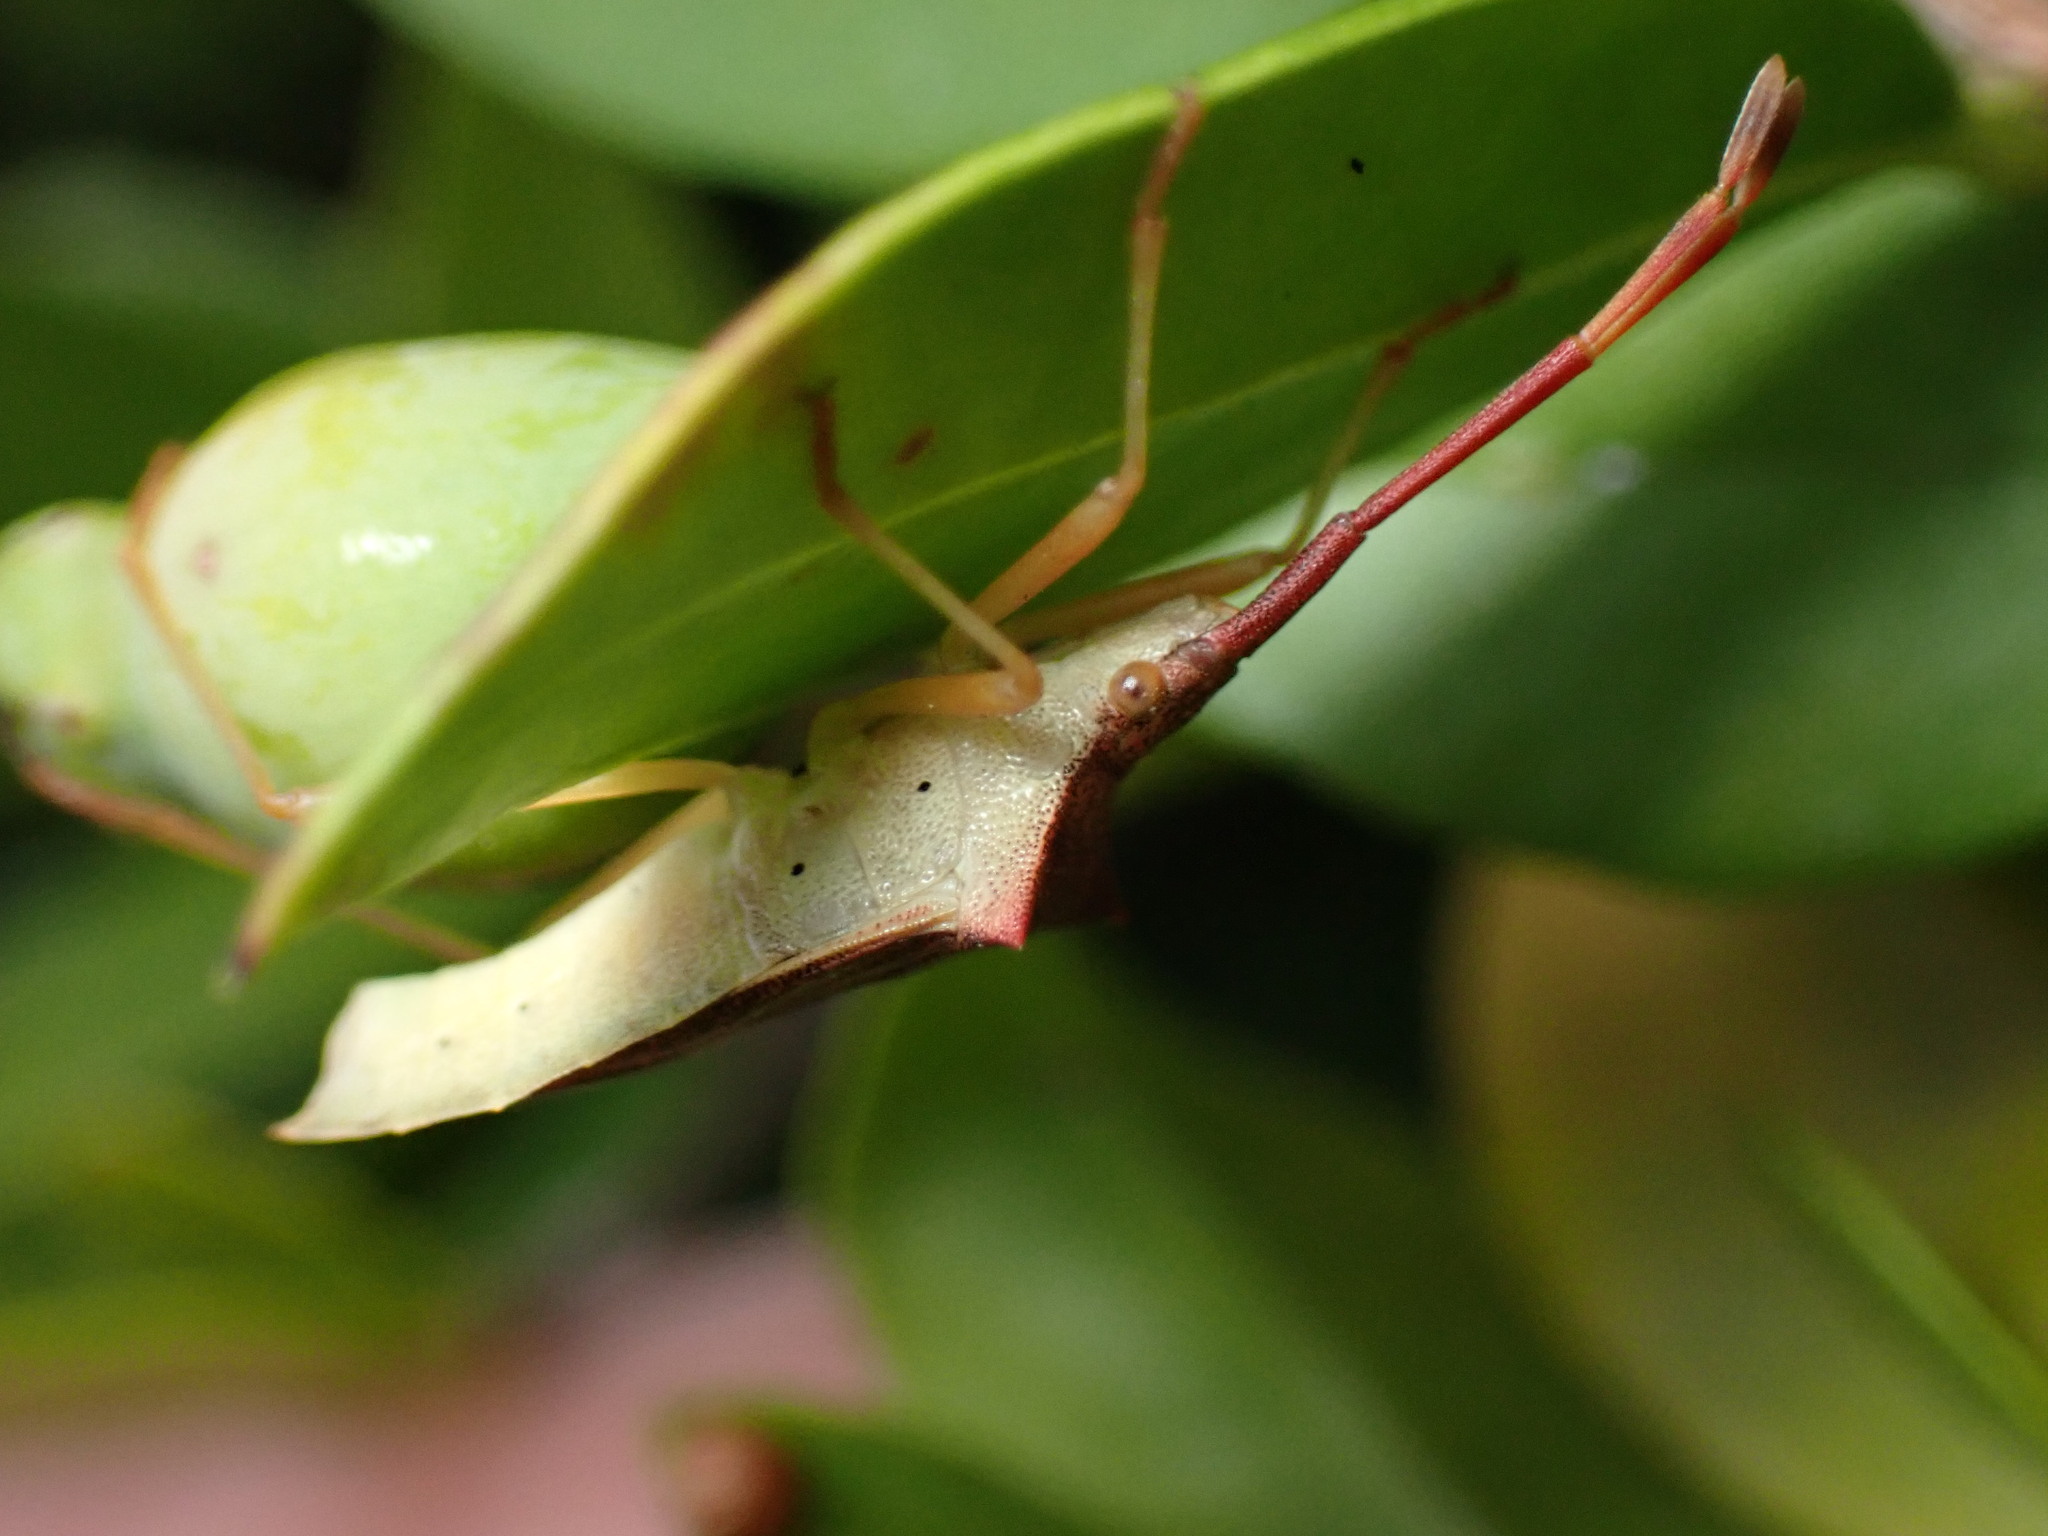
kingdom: Animalia
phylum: Arthropoda
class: Insecta
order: Hemiptera
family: Coreidae
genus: Gonocerus
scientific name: Gonocerus acuteangulatus
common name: Box bug
